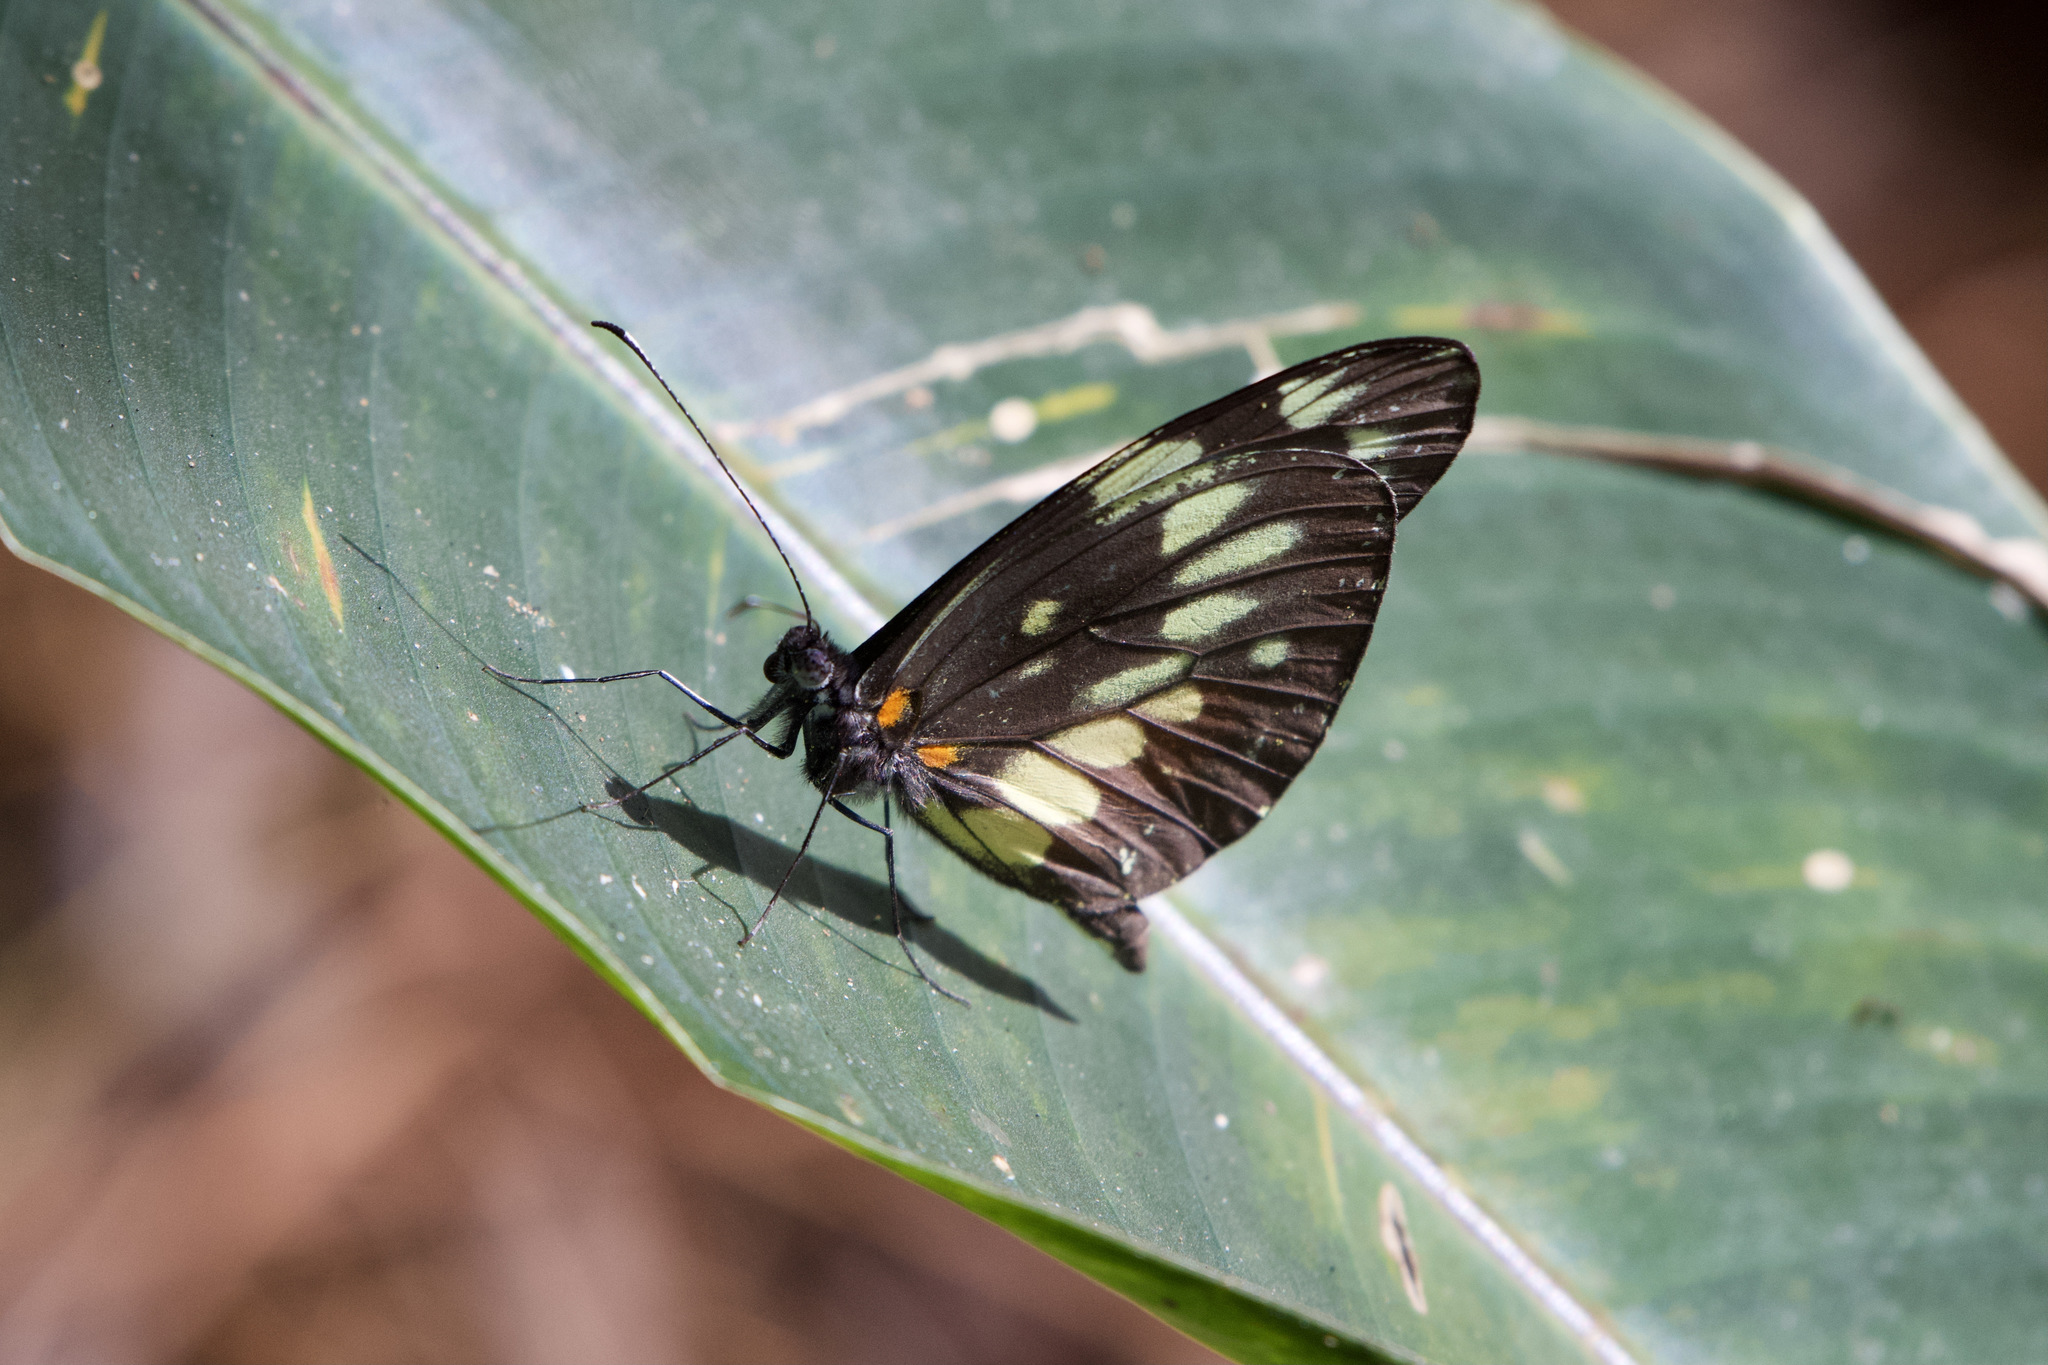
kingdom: Animalia
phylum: Arthropoda
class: Insecta
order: Lepidoptera
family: Pieridae
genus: Dismorphia
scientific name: Dismorphia eunoe
